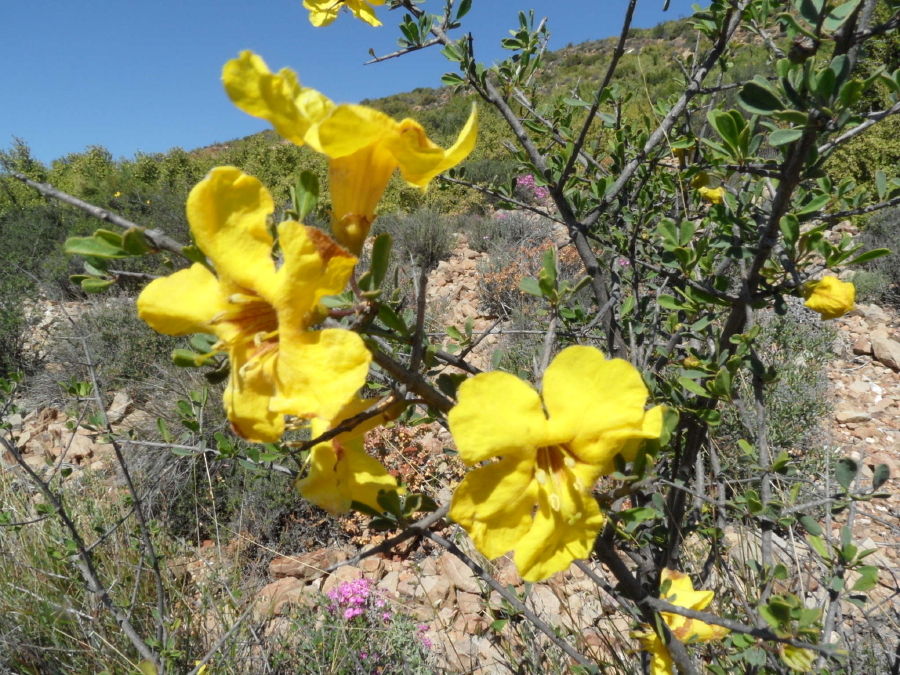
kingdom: Plantae
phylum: Tracheophyta
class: Magnoliopsida
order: Lamiales
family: Bignoniaceae
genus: Rhigozum
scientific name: Rhigozum obovatum
